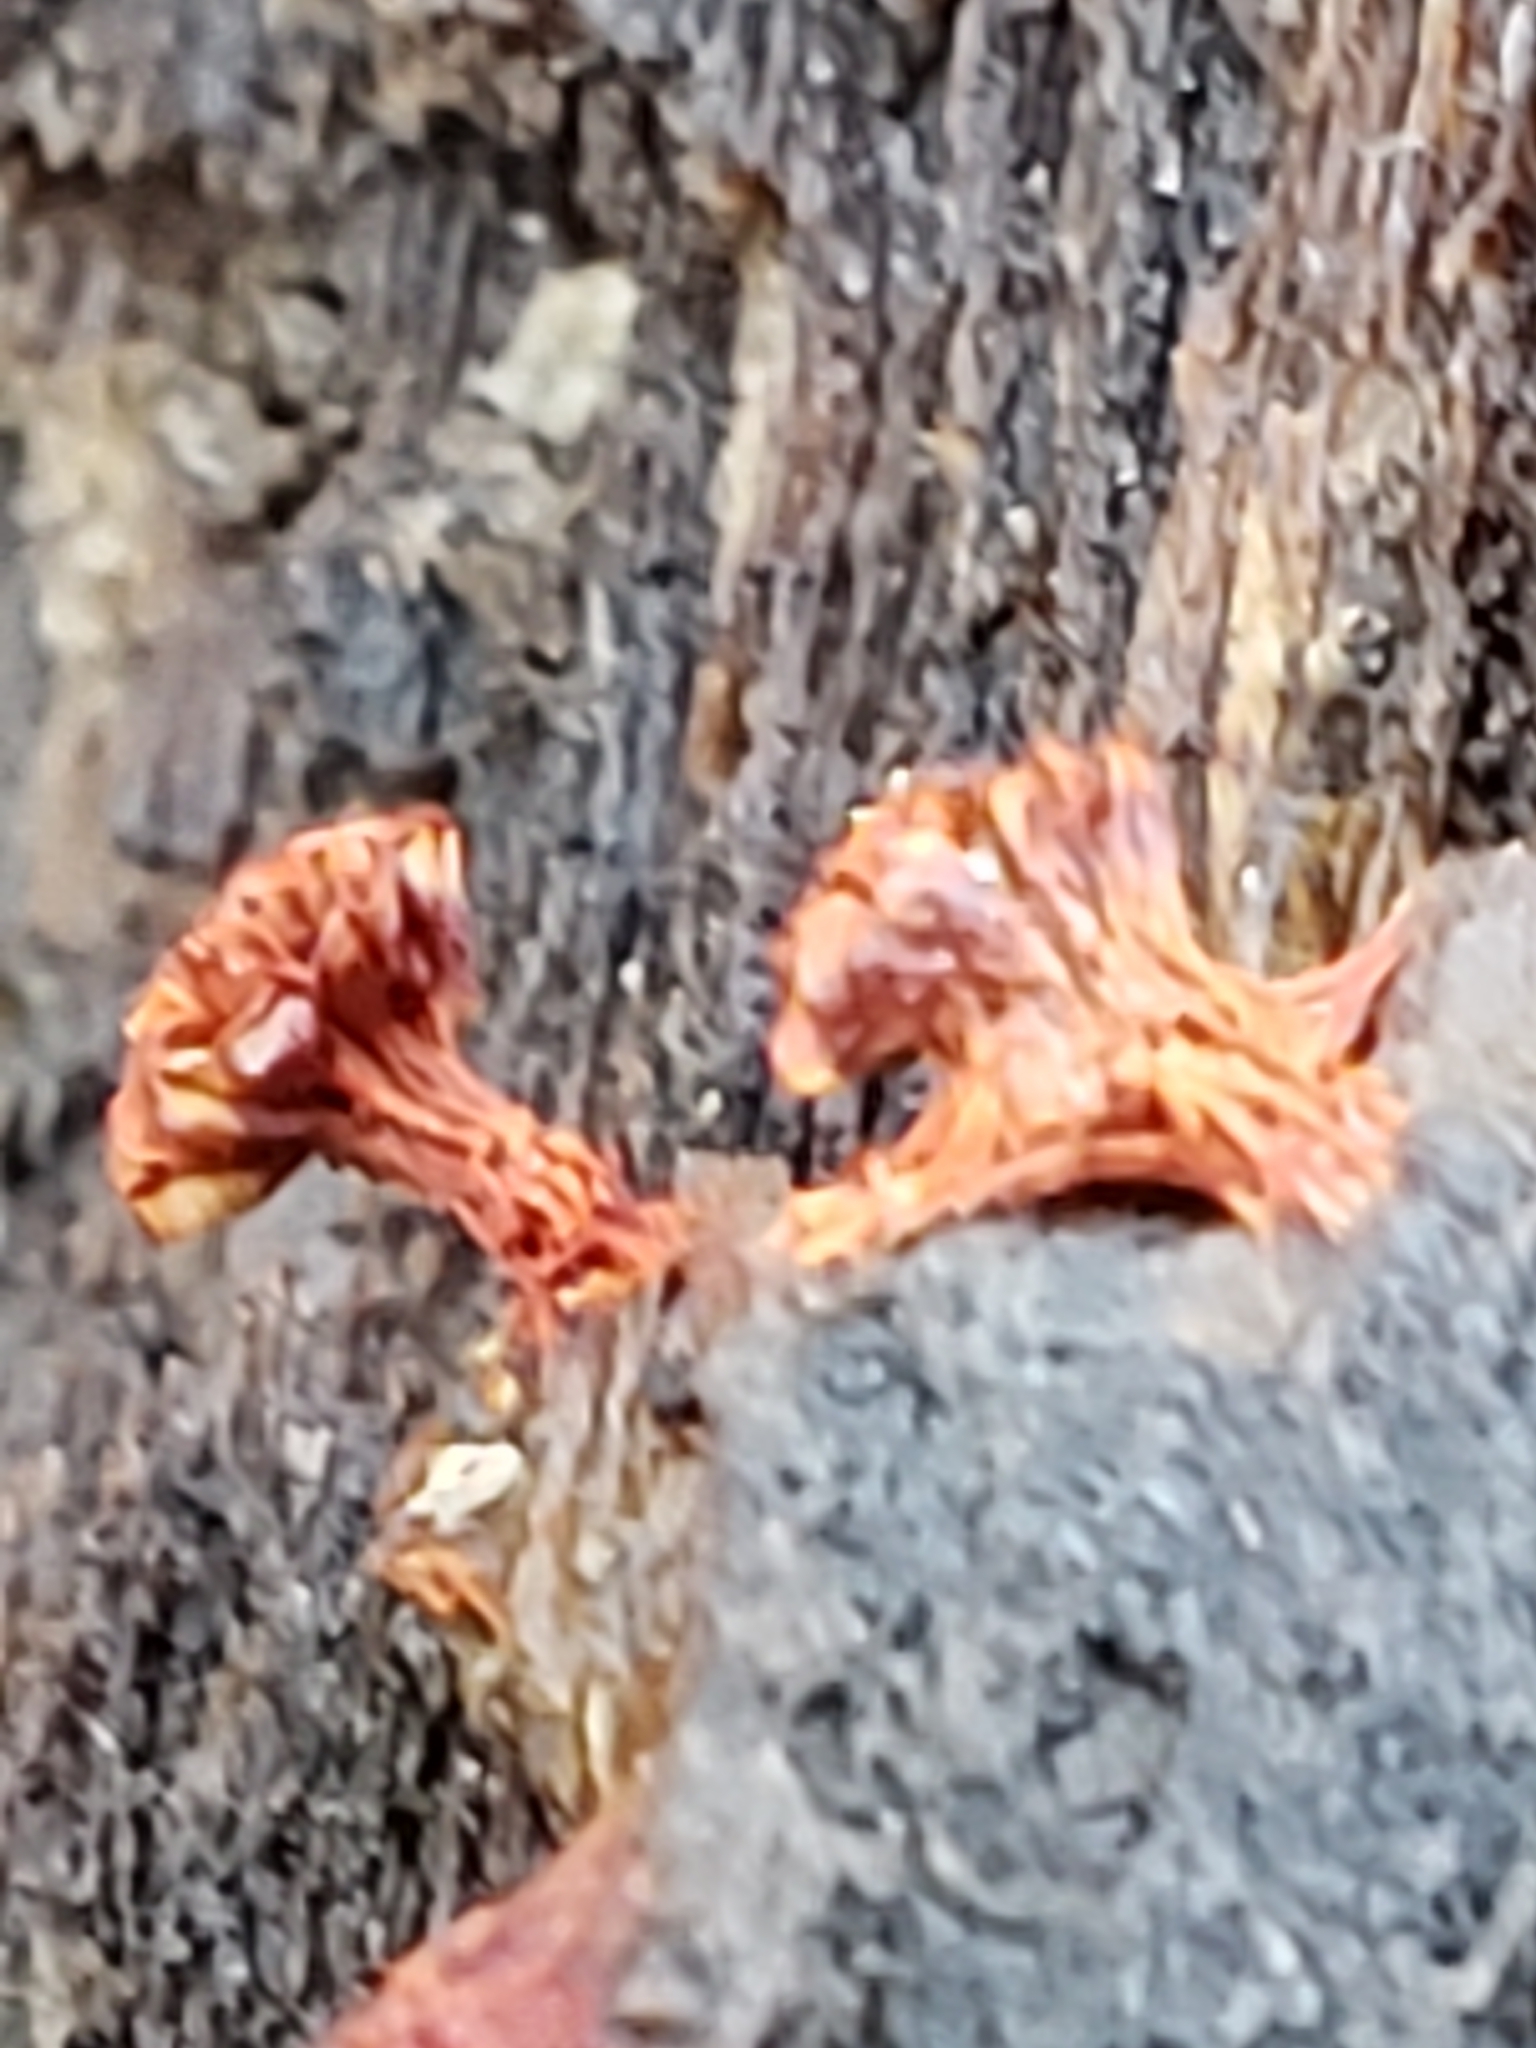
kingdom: Protozoa
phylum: Mycetozoa
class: Myxomycetes
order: Trichiales
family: Trichiaceae
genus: Metatrichia
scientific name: Metatrichia vesparia
